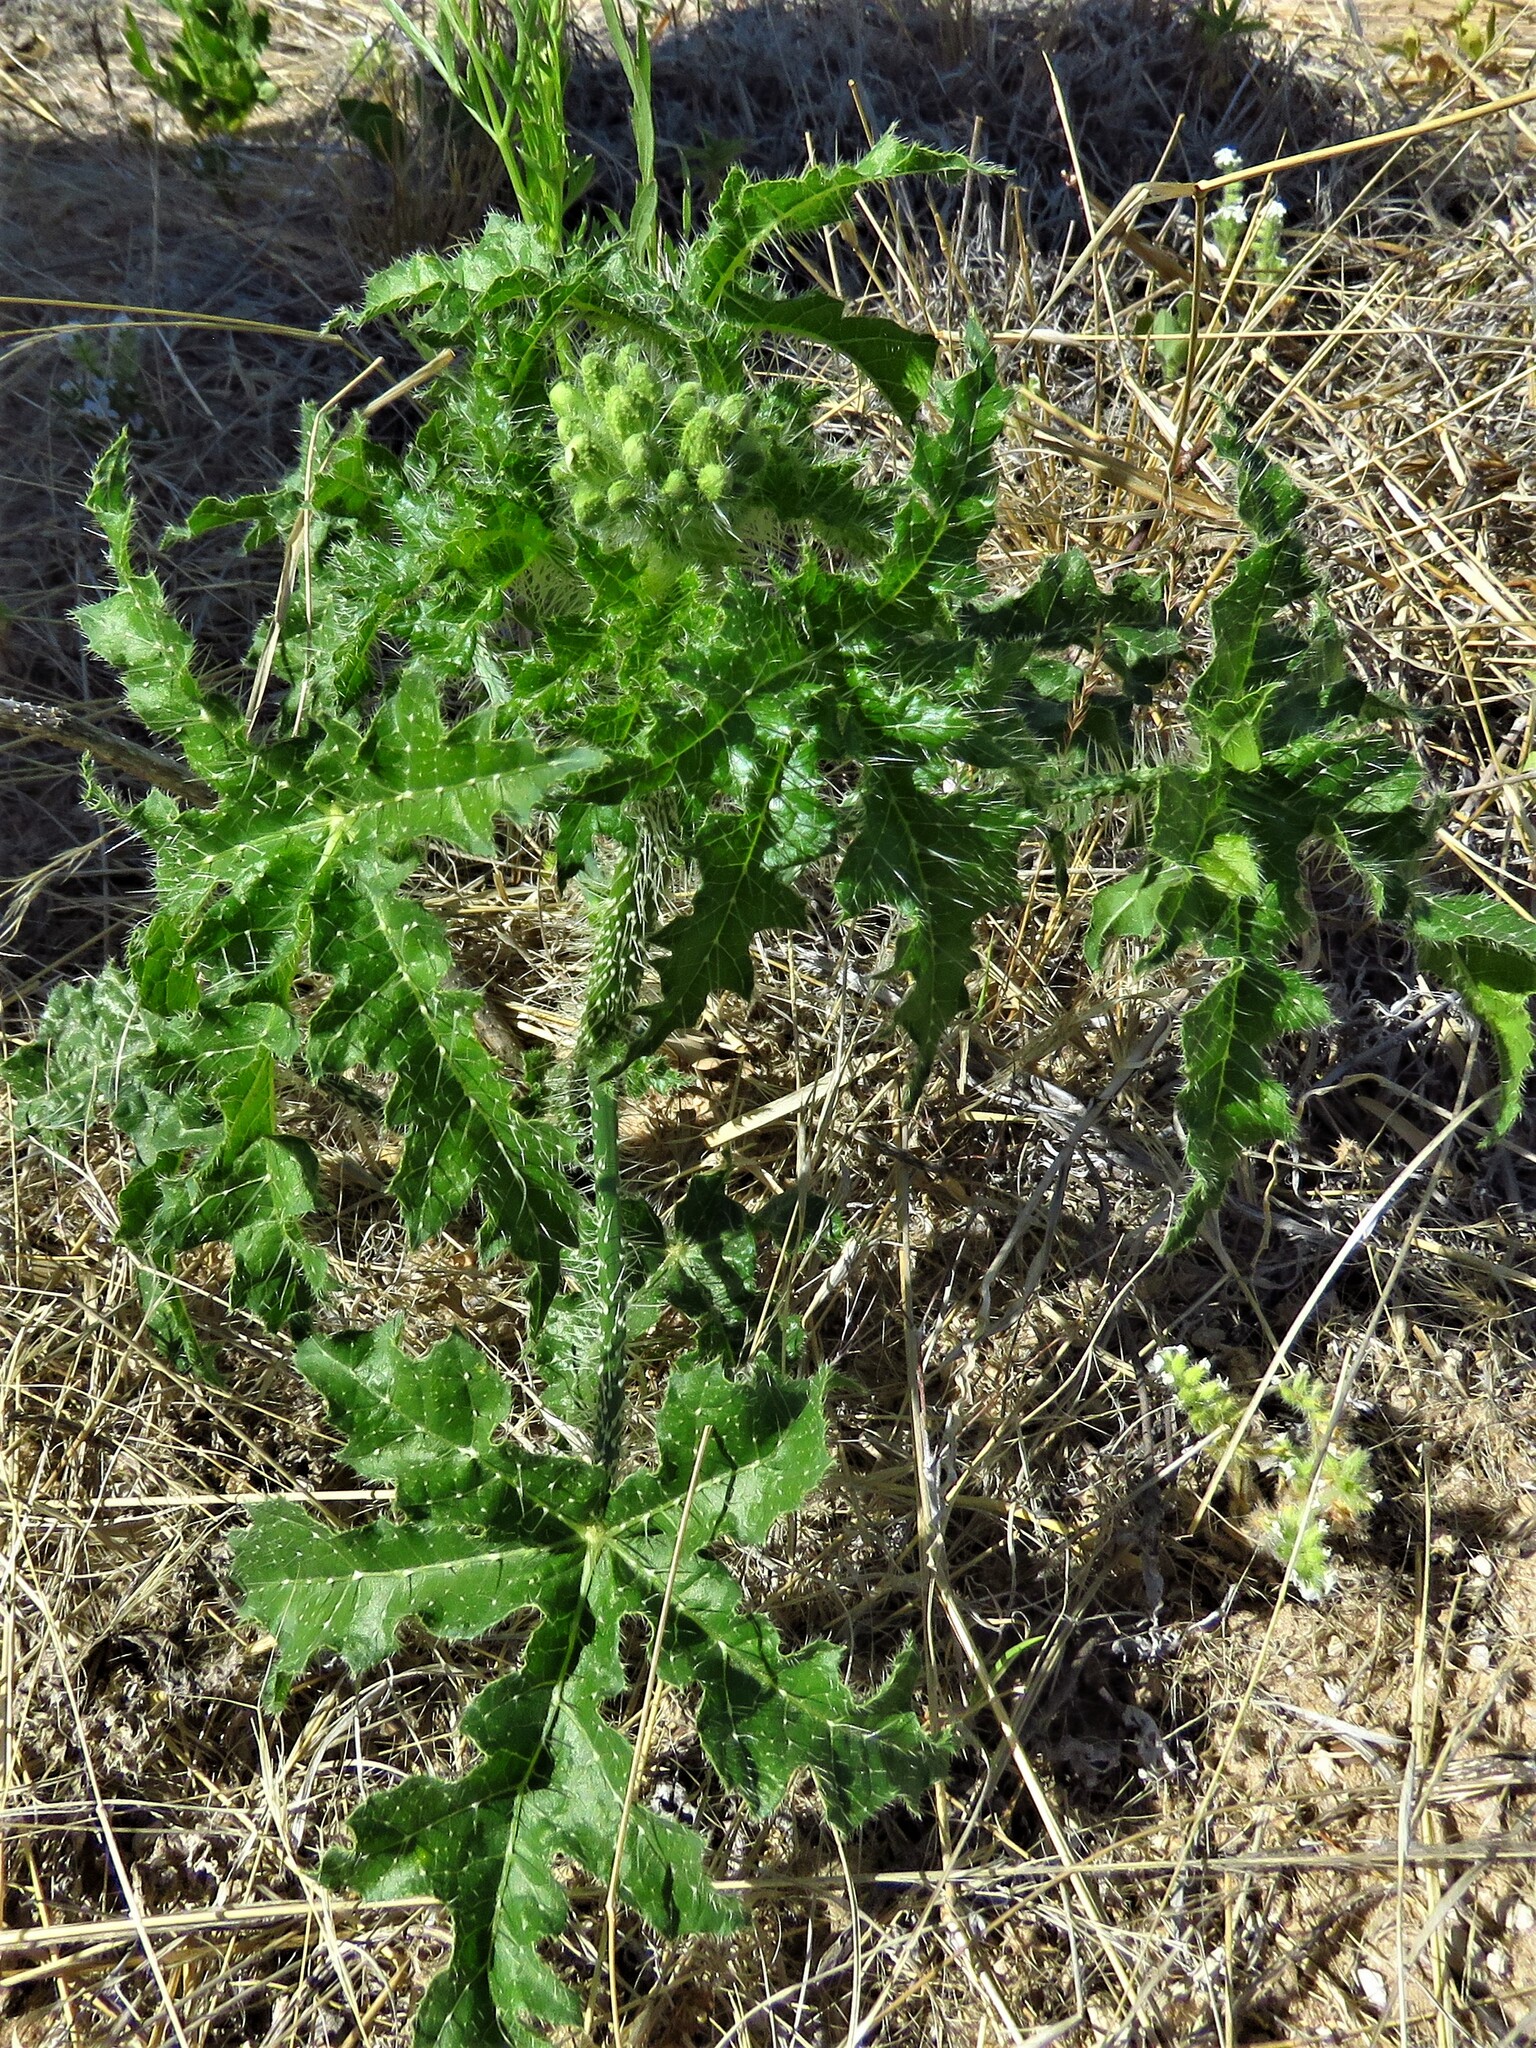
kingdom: Plantae
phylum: Tracheophyta
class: Magnoliopsida
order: Malpighiales
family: Euphorbiaceae
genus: Cnidoscolus
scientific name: Cnidoscolus texanus
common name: Texas bull-nettle
